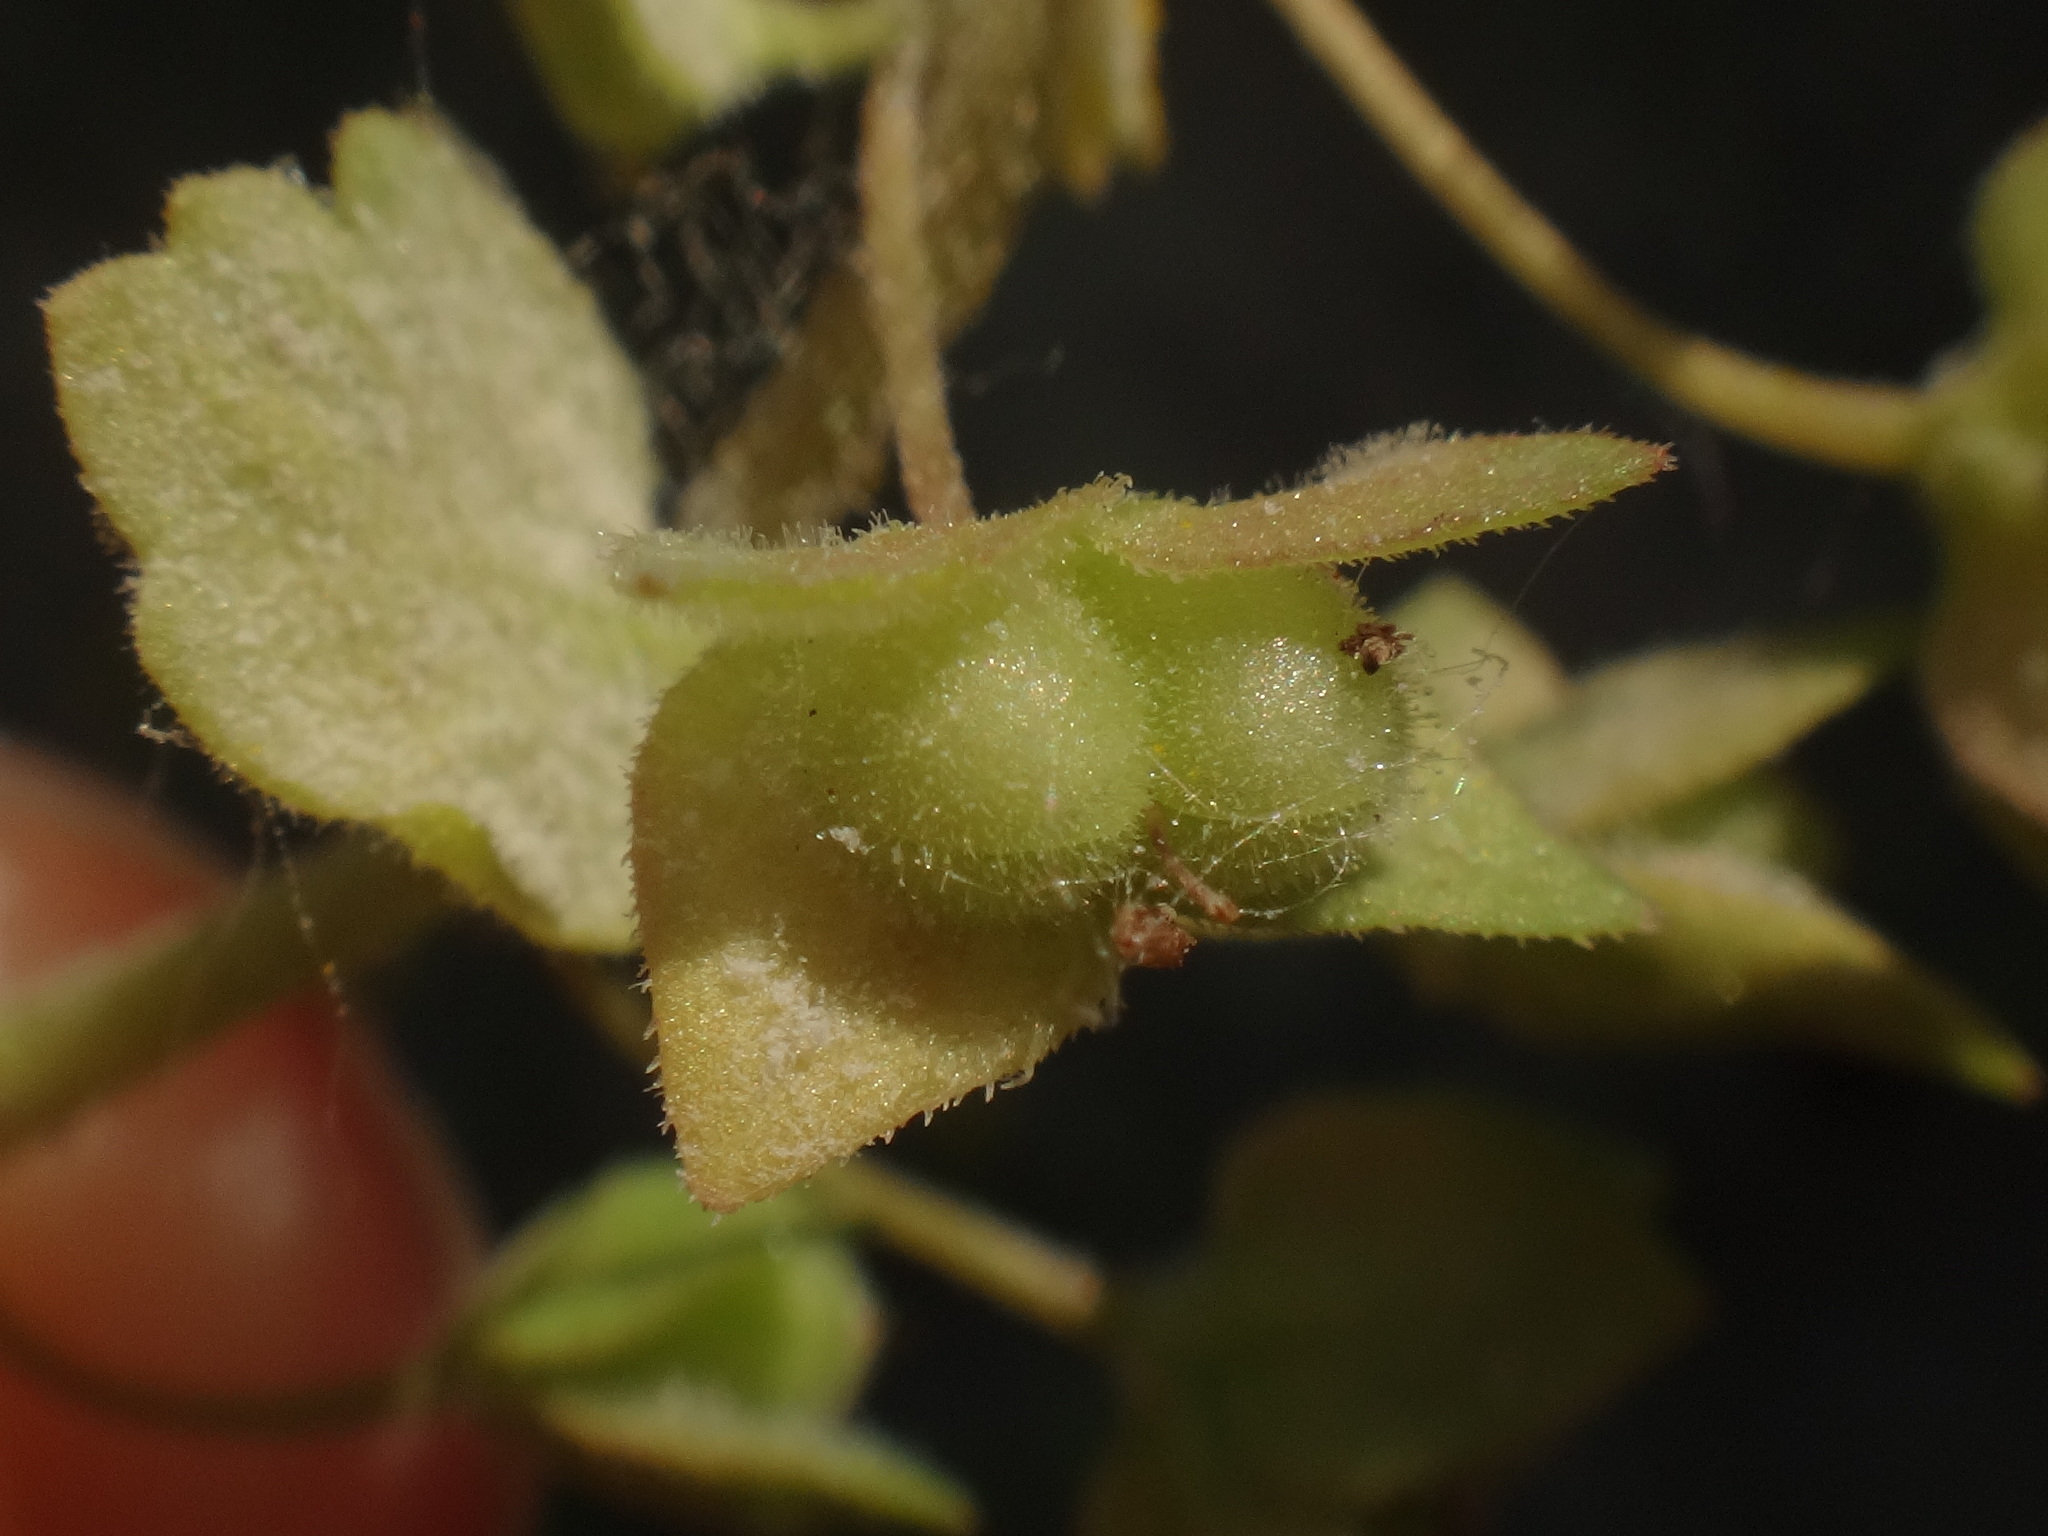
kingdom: Plantae
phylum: Tracheophyta
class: Magnoliopsida
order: Lamiales
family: Plantaginaceae
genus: Veronica
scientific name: Veronica polita
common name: Grey field-speedwell
